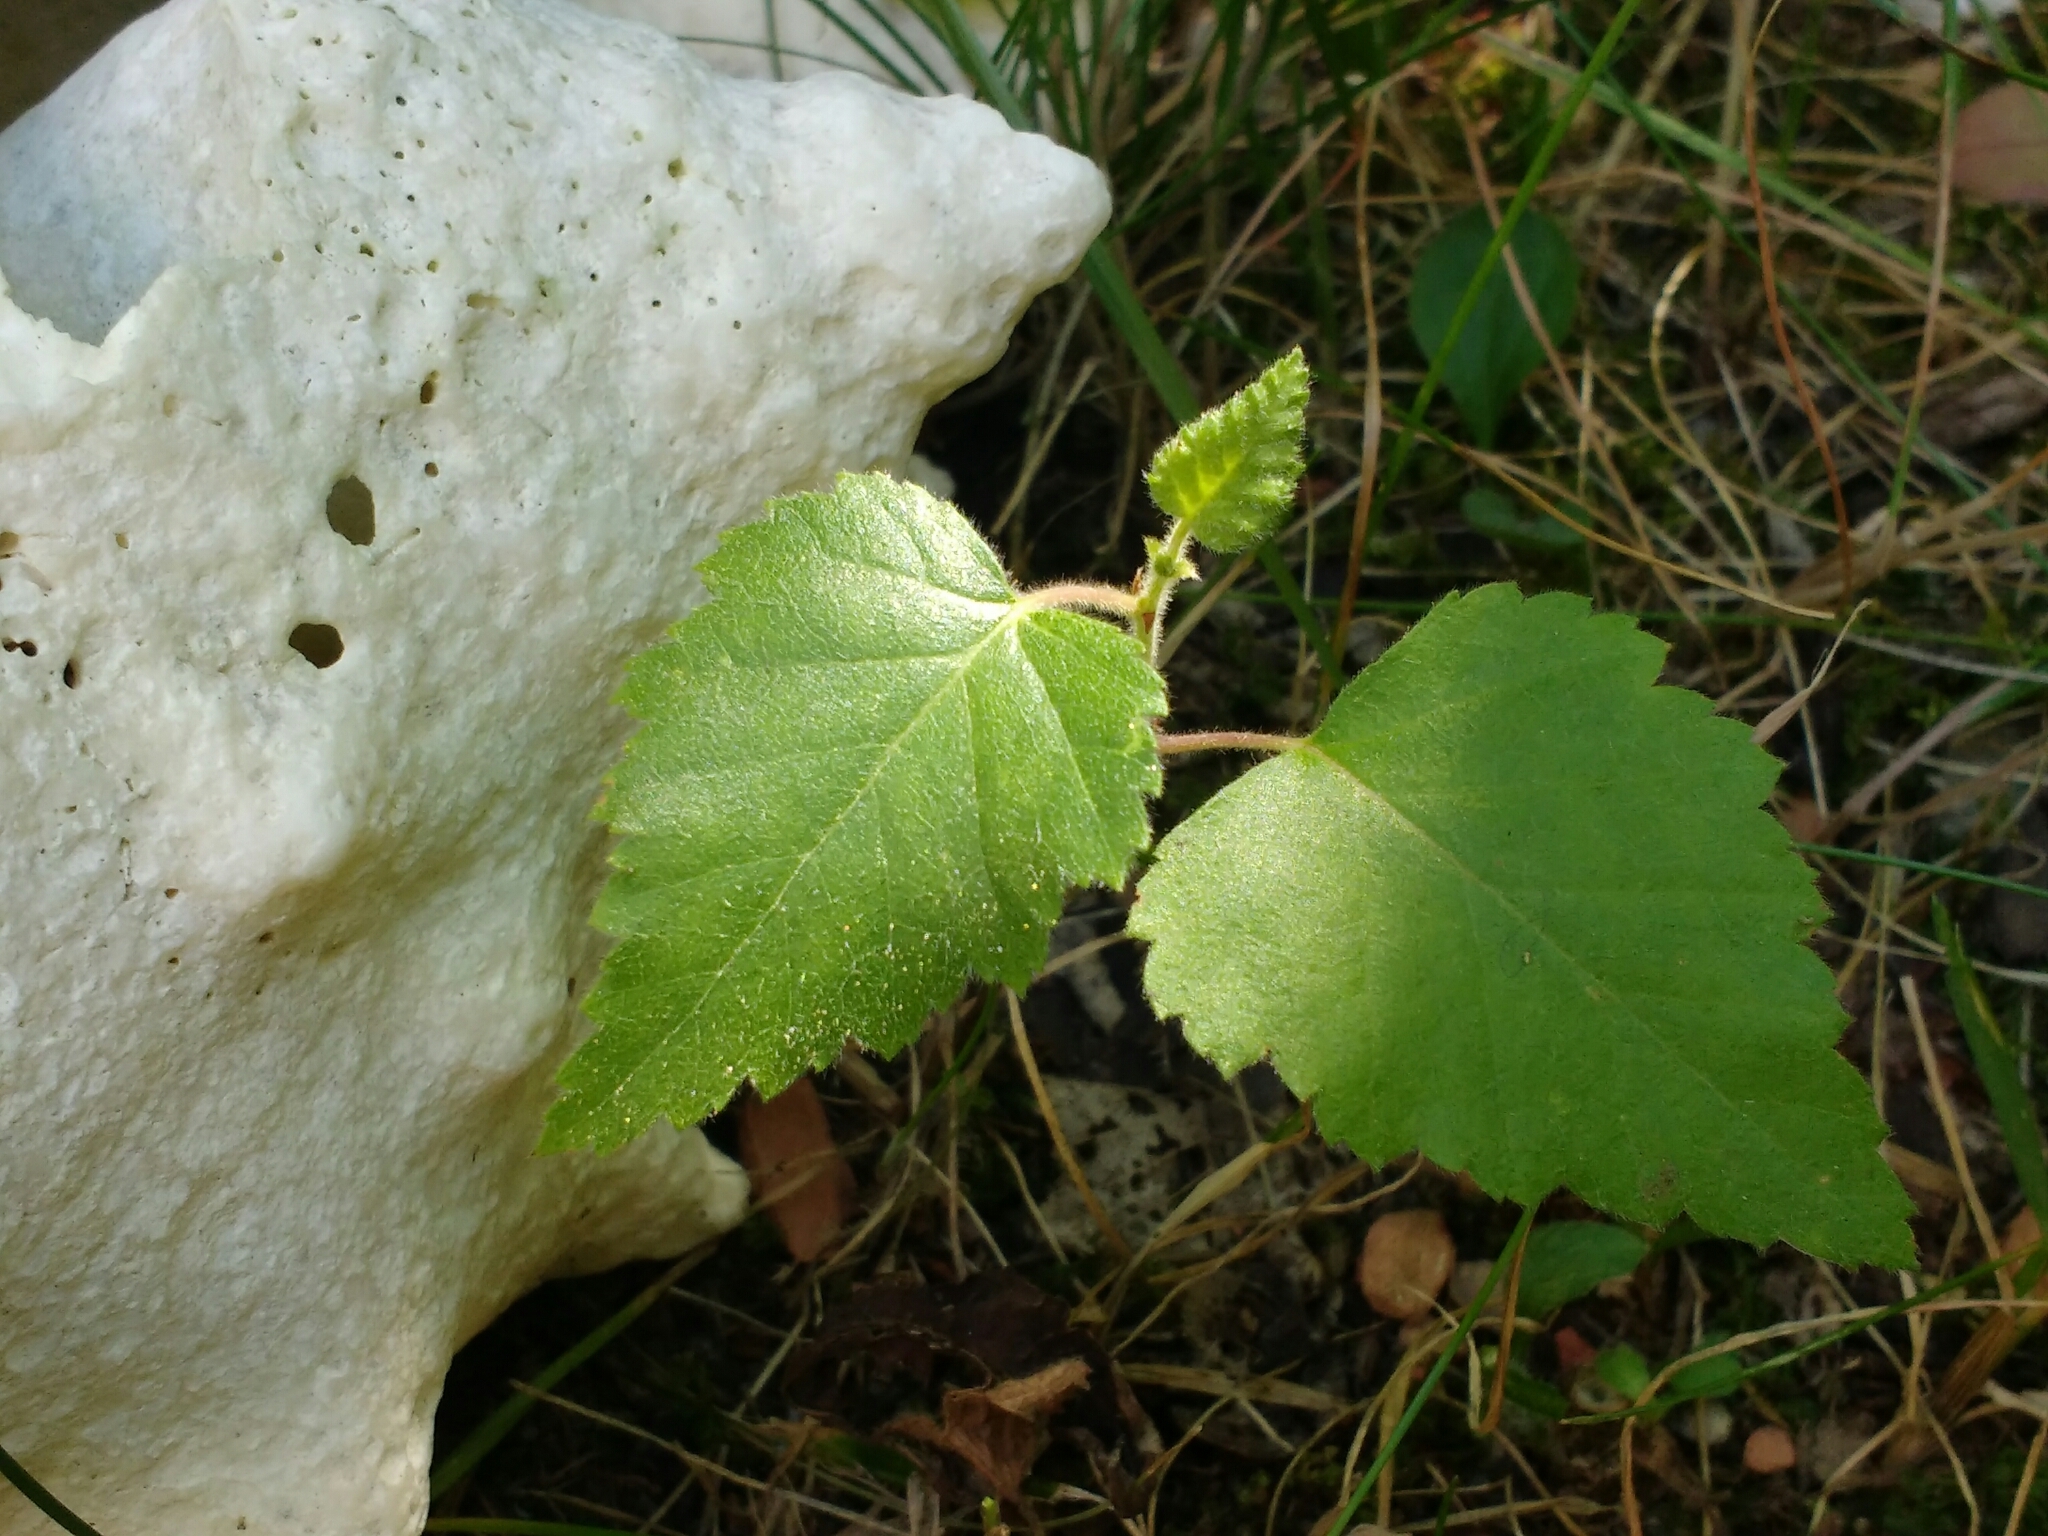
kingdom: Plantae
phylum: Tracheophyta
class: Magnoliopsida
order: Fagales
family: Betulaceae
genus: Betula
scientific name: Betula pendula
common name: Silver birch
